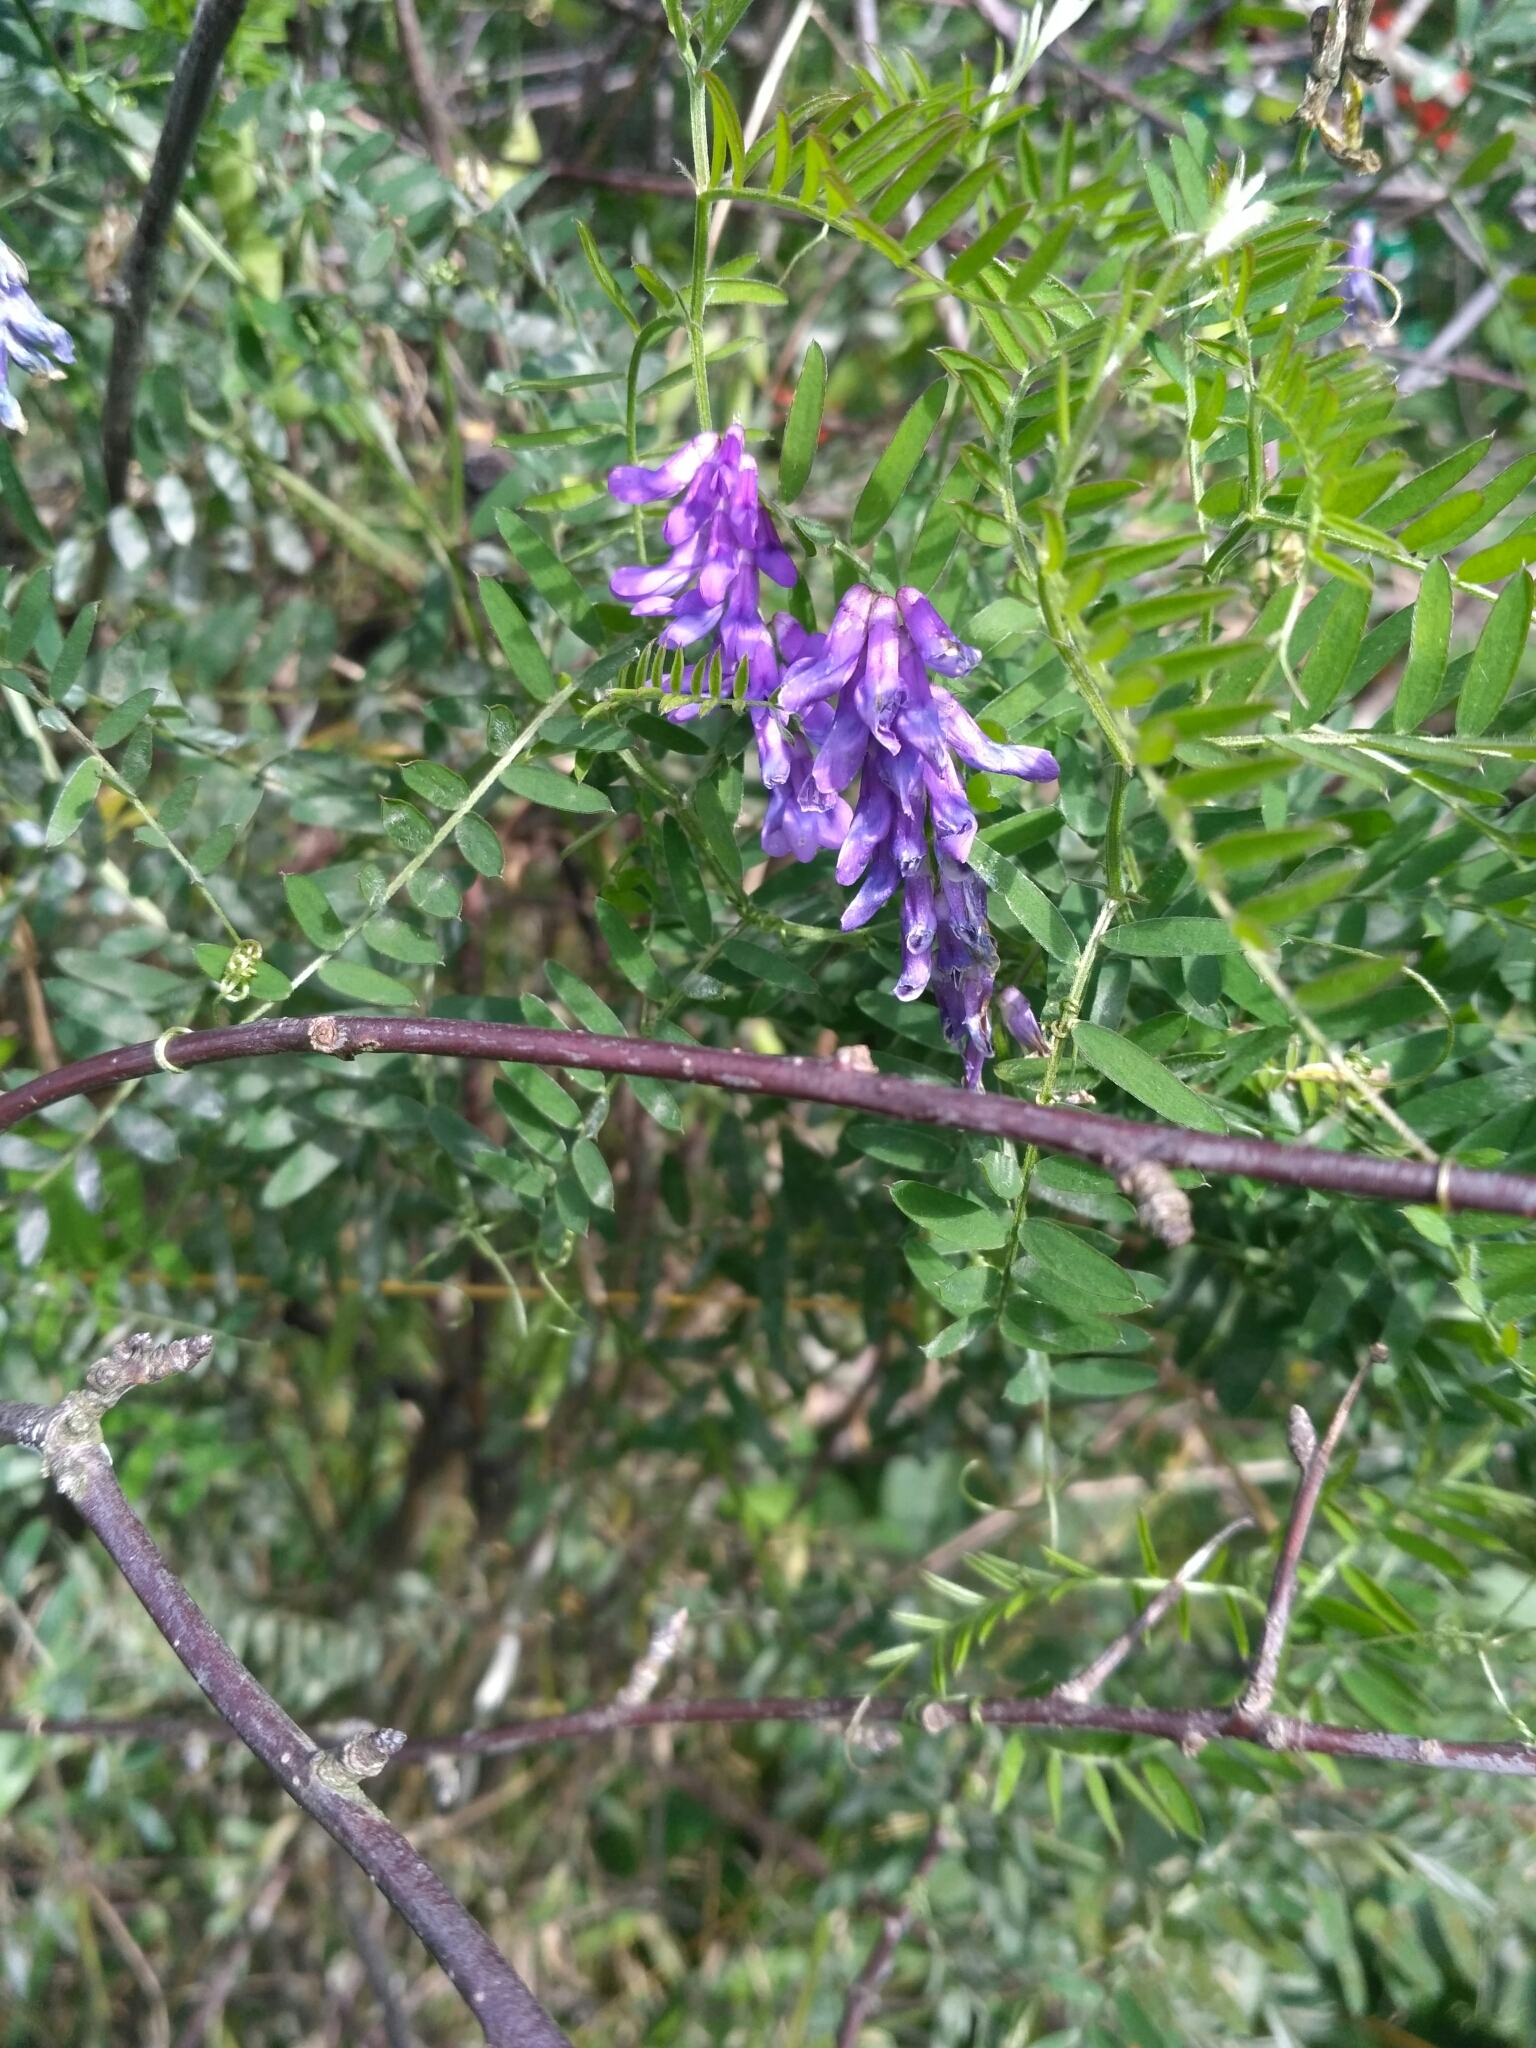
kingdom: Plantae
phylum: Tracheophyta
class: Magnoliopsida
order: Fabales
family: Fabaceae
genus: Vicia
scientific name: Vicia cracca
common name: Bird vetch
